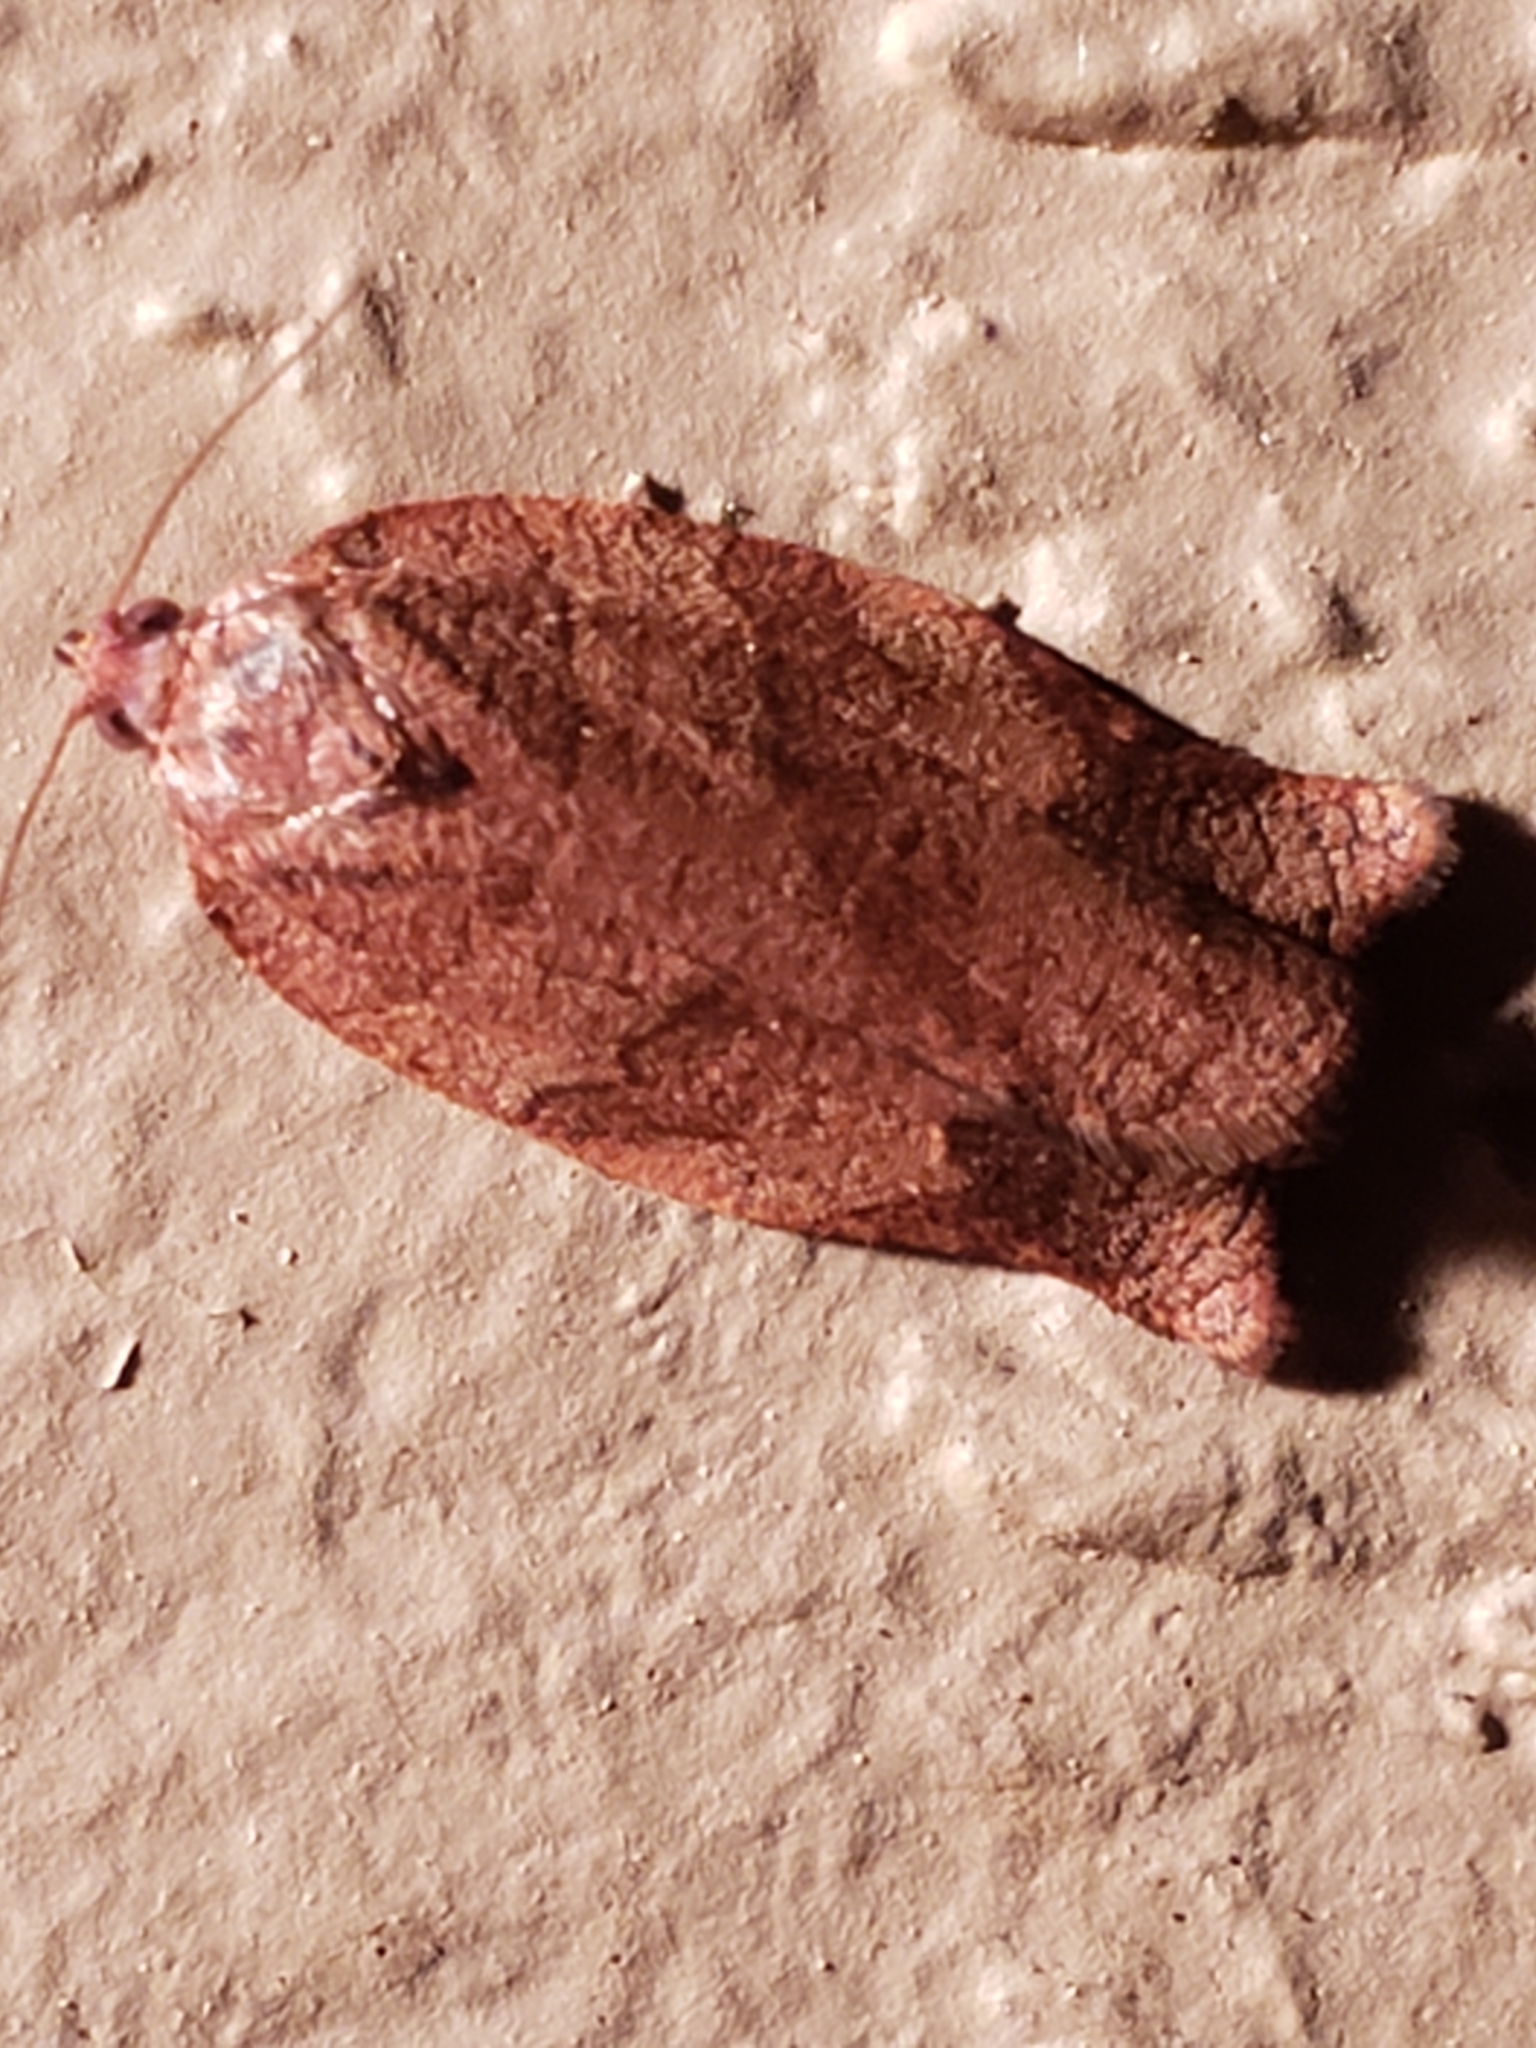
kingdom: Animalia
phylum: Arthropoda
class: Insecta
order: Lepidoptera
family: Tortricidae
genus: Choristoneura
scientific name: Choristoneura rosaceana
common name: Oblique-banded leafroller moth
